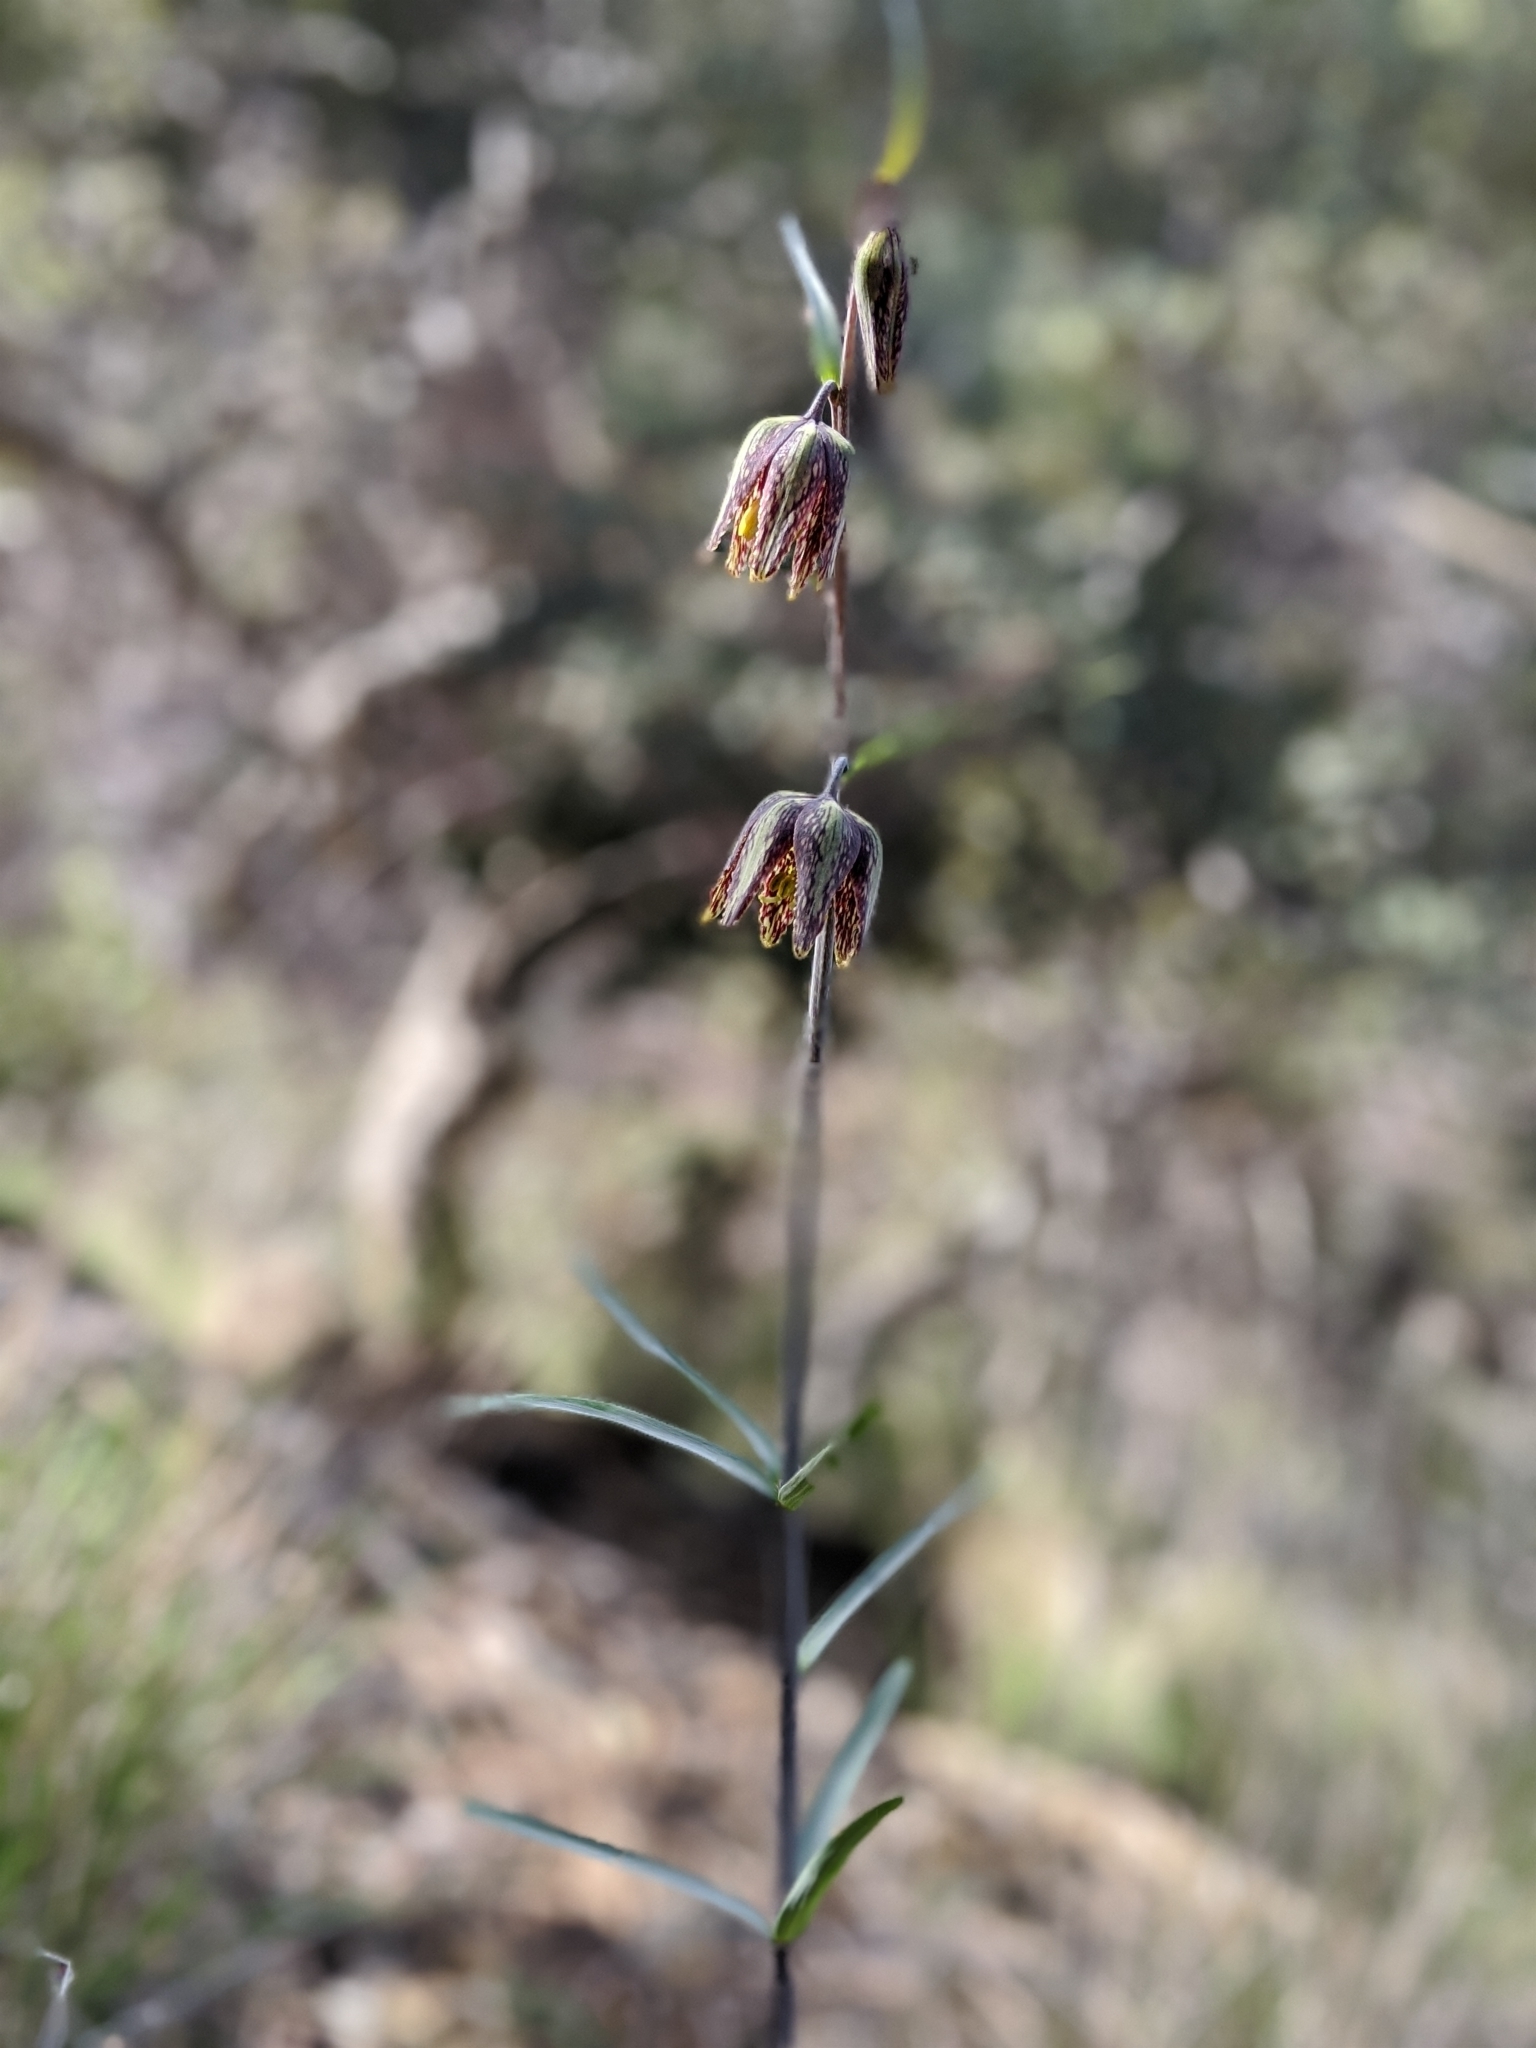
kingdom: Plantae
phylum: Tracheophyta
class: Liliopsida
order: Liliales
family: Liliaceae
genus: Fritillaria
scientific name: Fritillaria affinis
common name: Ojai fritillary
